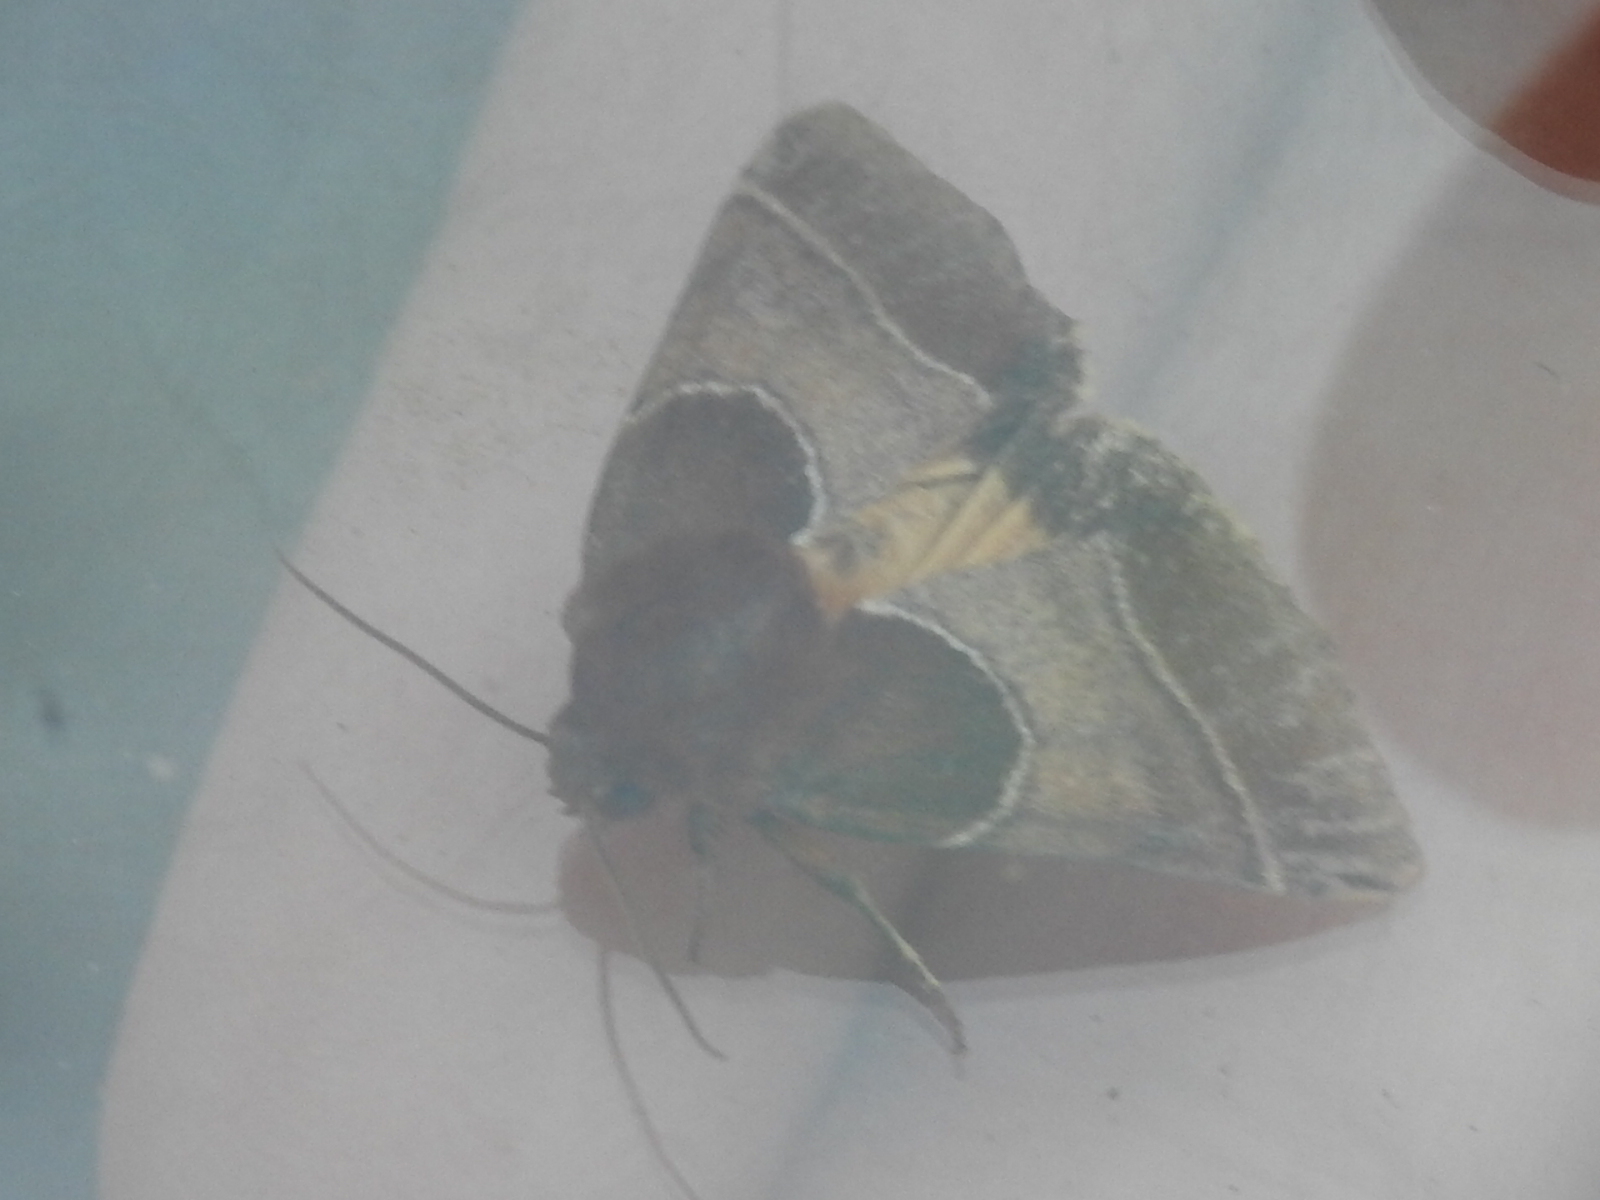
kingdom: Animalia
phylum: Arthropoda
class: Insecta
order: Lepidoptera
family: Noctuidae
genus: Schinia
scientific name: Schinia arcigera
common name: Arcigera flower moth
